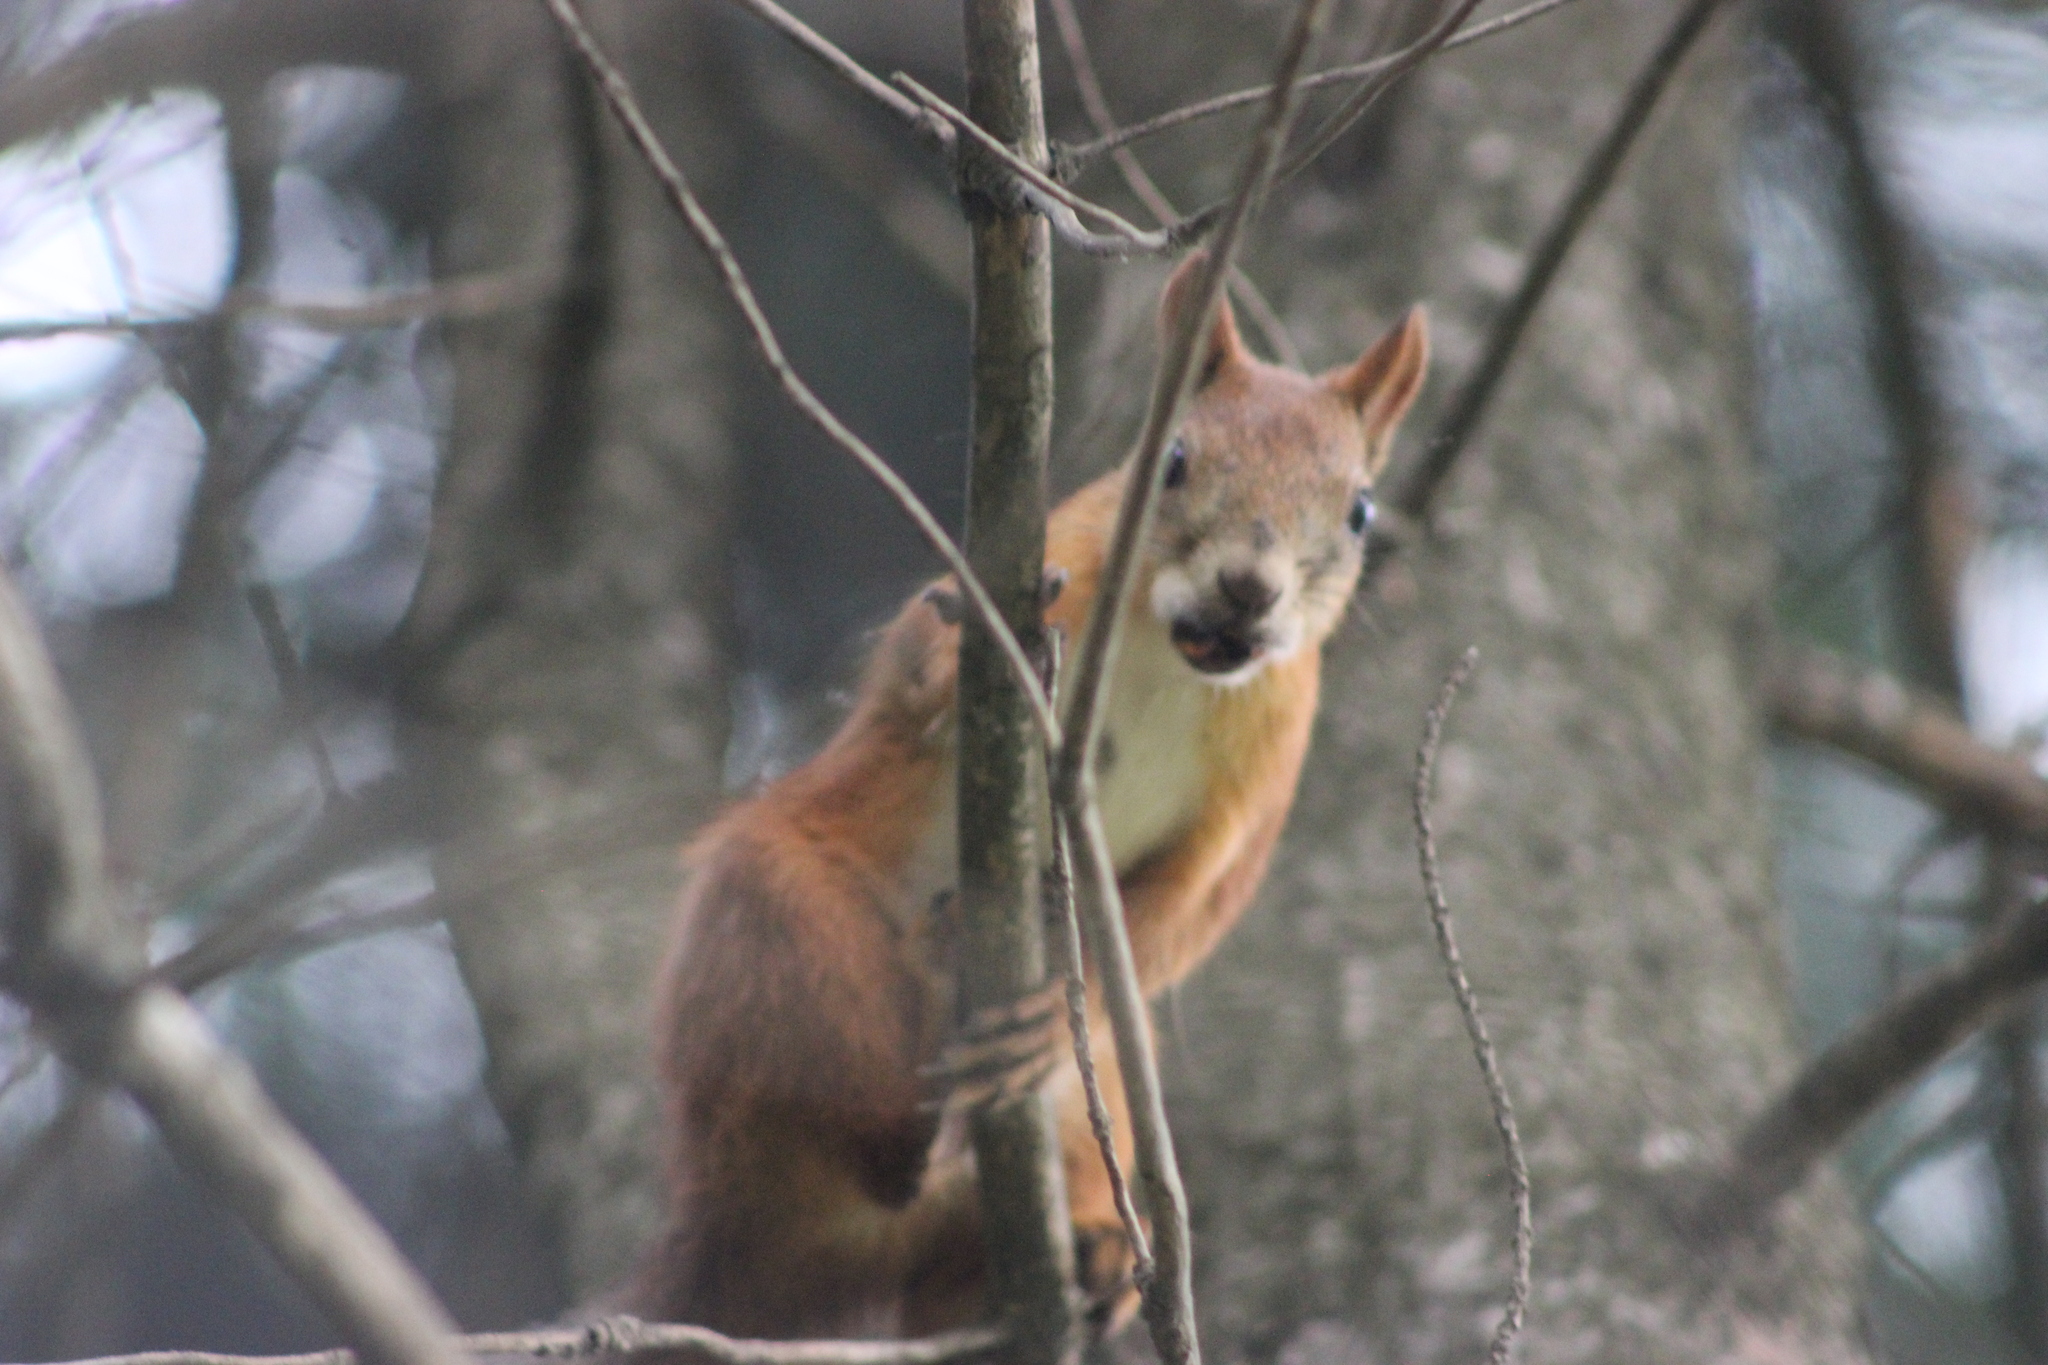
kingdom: Animalia
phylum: Chordata
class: Mammalia
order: Rodentia
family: Sciuridae
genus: Sciurus
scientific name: Sciurus vulgaris
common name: Eurasian red squirrel
